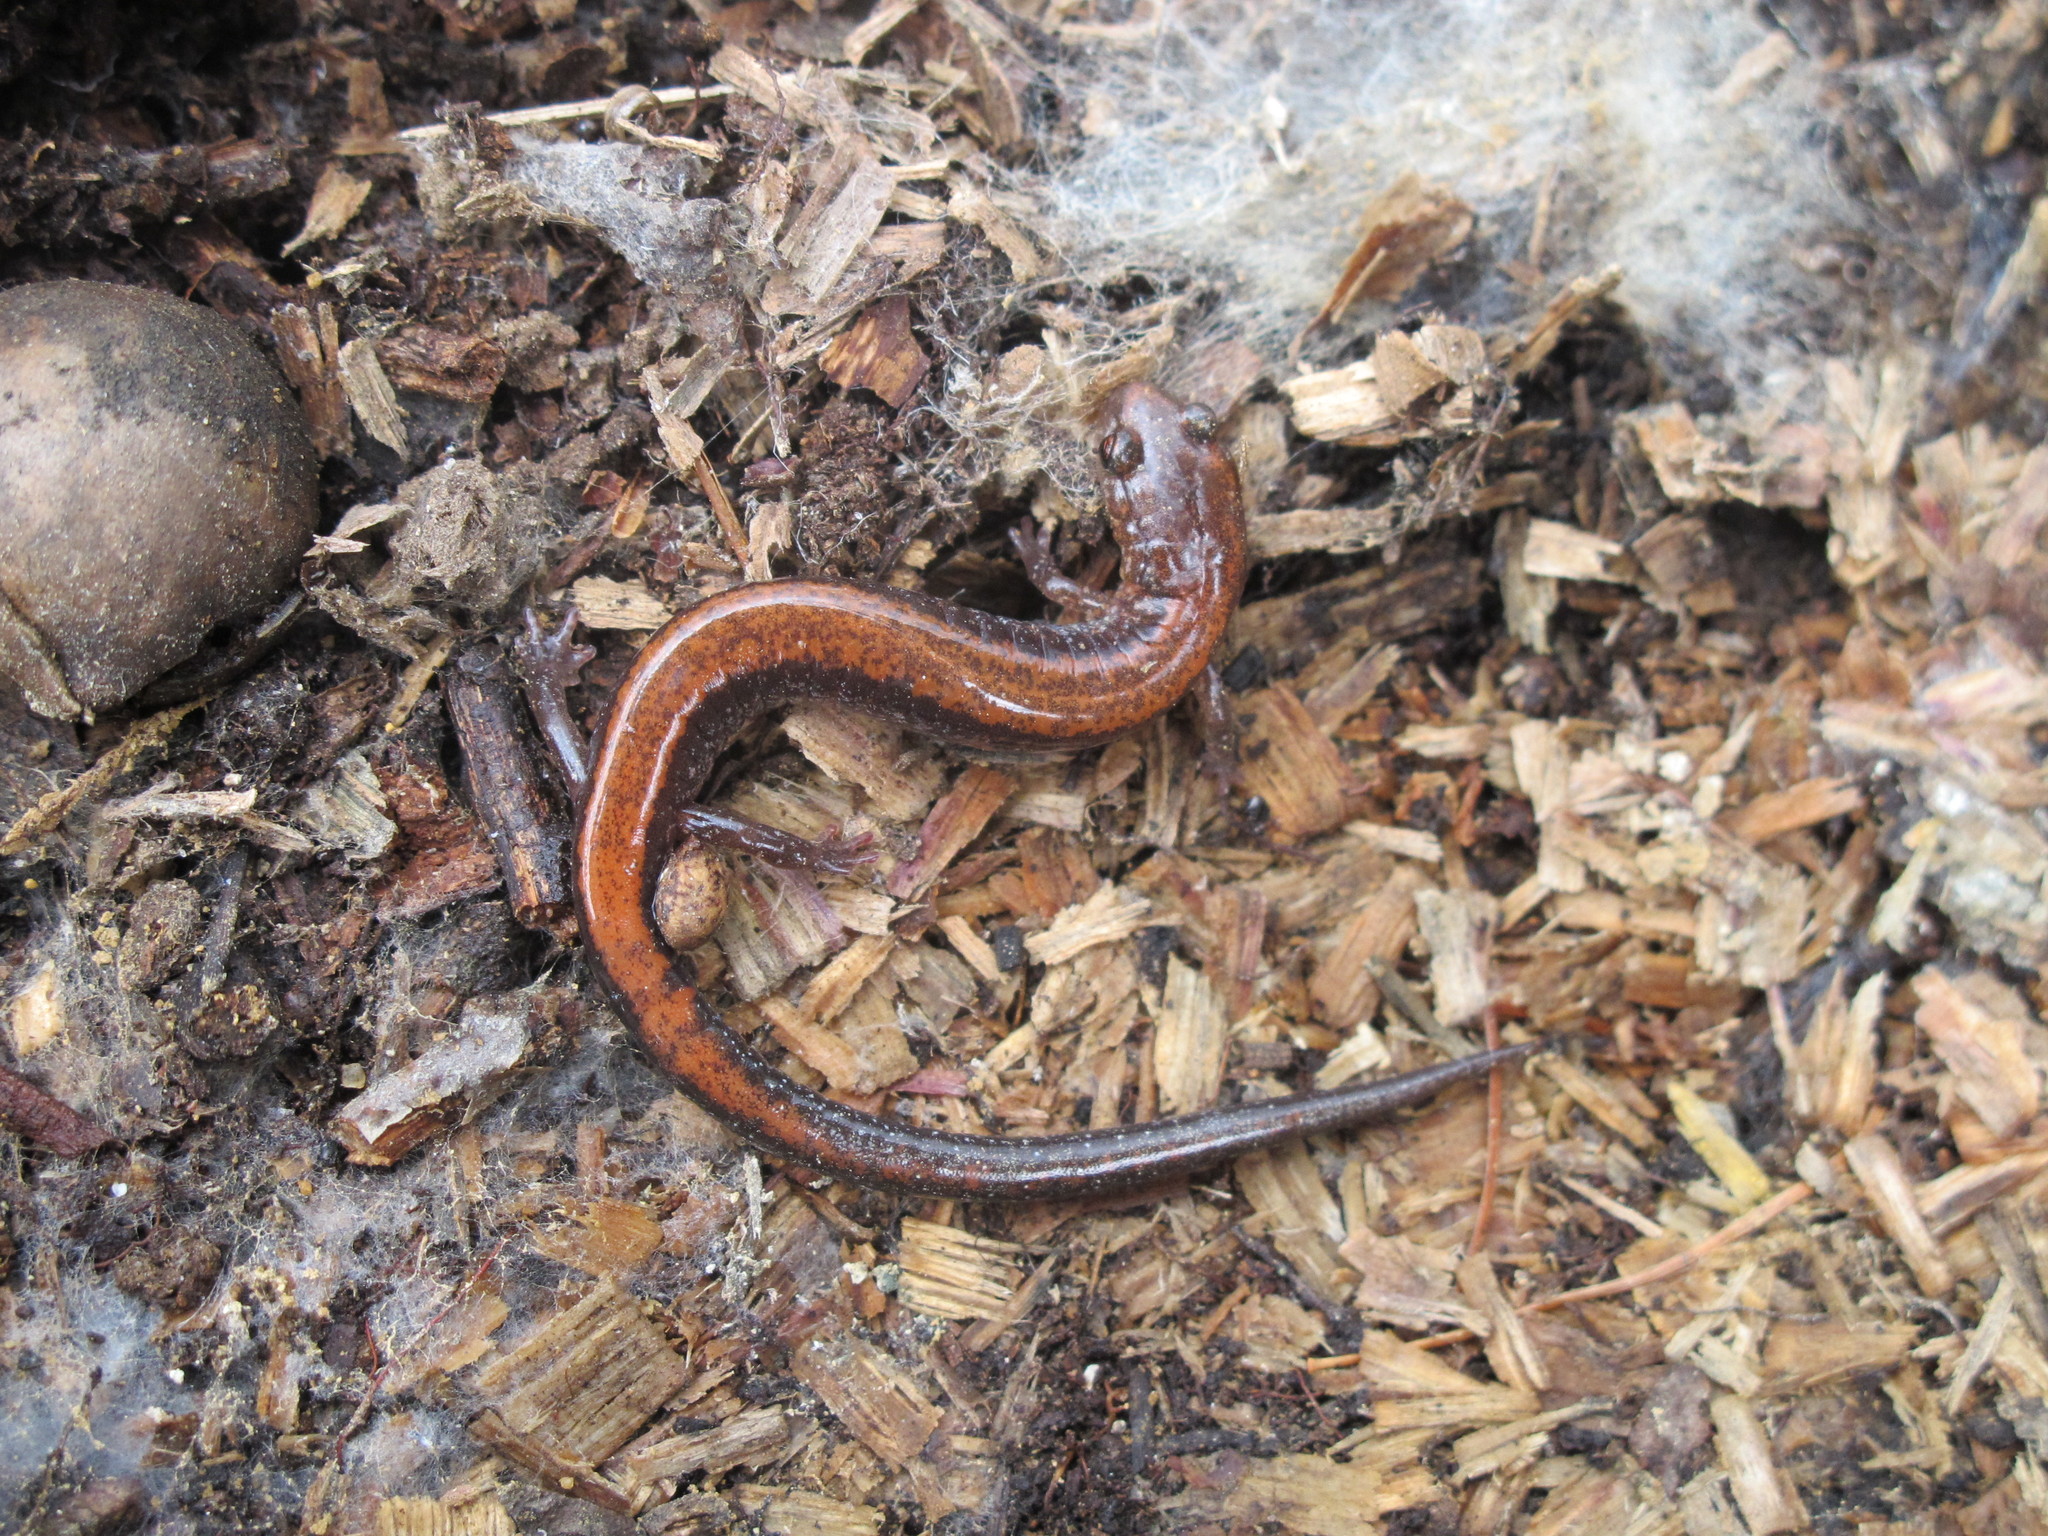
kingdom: Animalia
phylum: Chordata
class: Amphibia
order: Caudata
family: Plethodontidae
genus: Plethodon
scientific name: Plethodon cinereus
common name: Redback salamander
